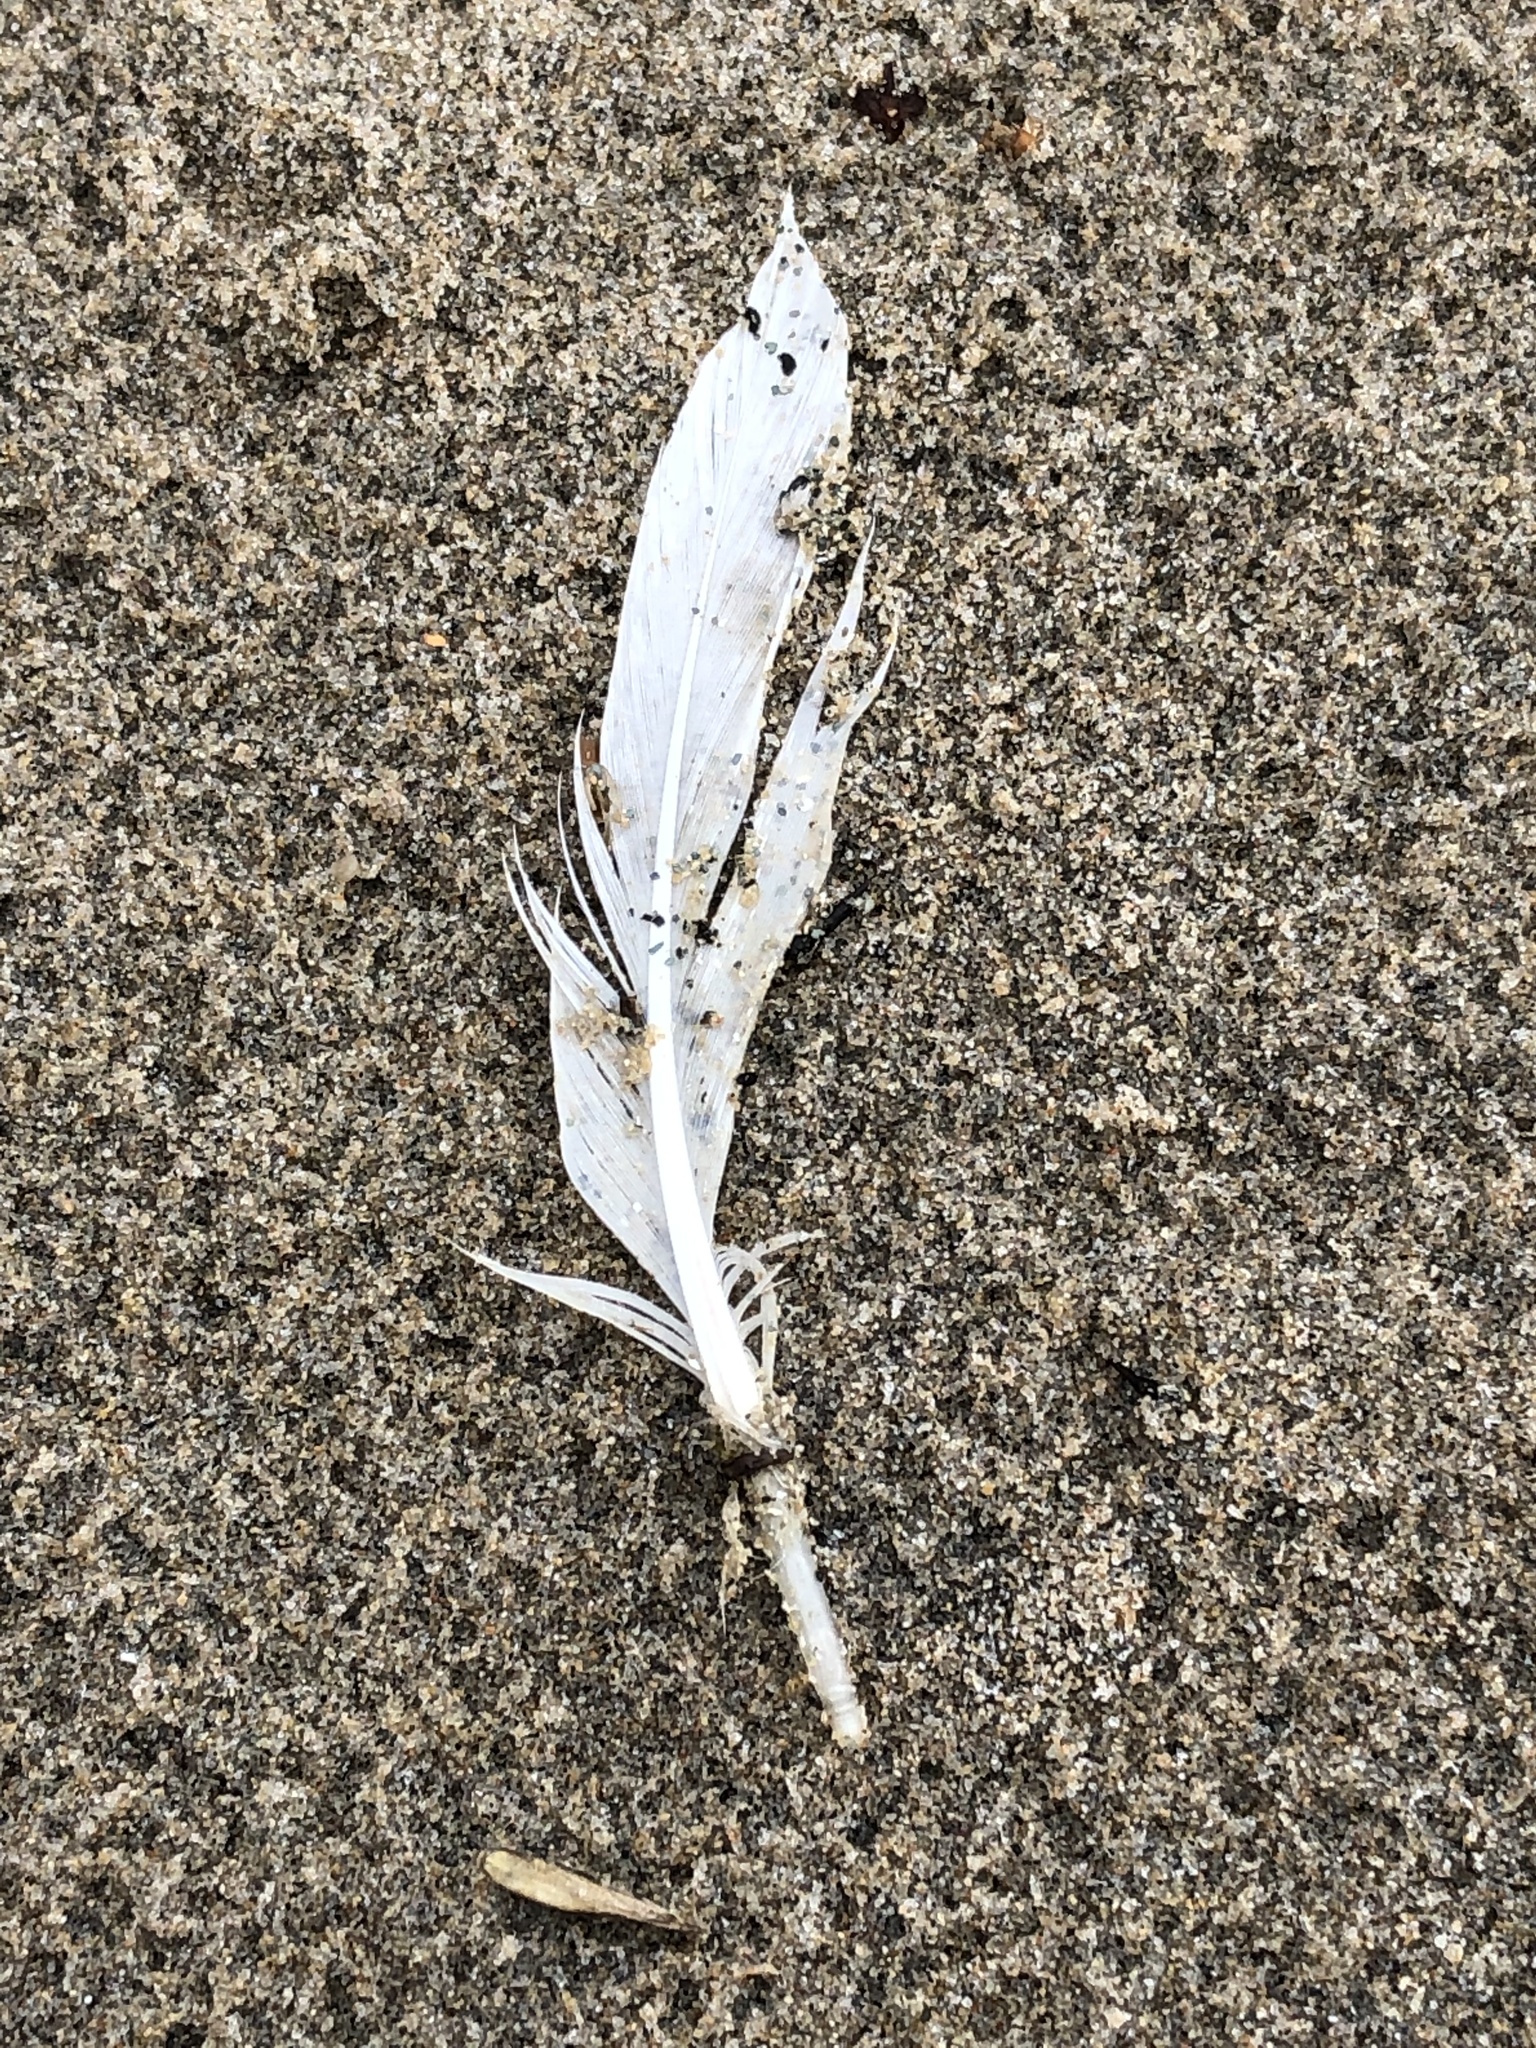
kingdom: Animalia
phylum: Chordata
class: Aves
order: Anseriformes
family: Anatidae
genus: Clangula
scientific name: Clangula hyemalis
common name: Long-tailed duck
